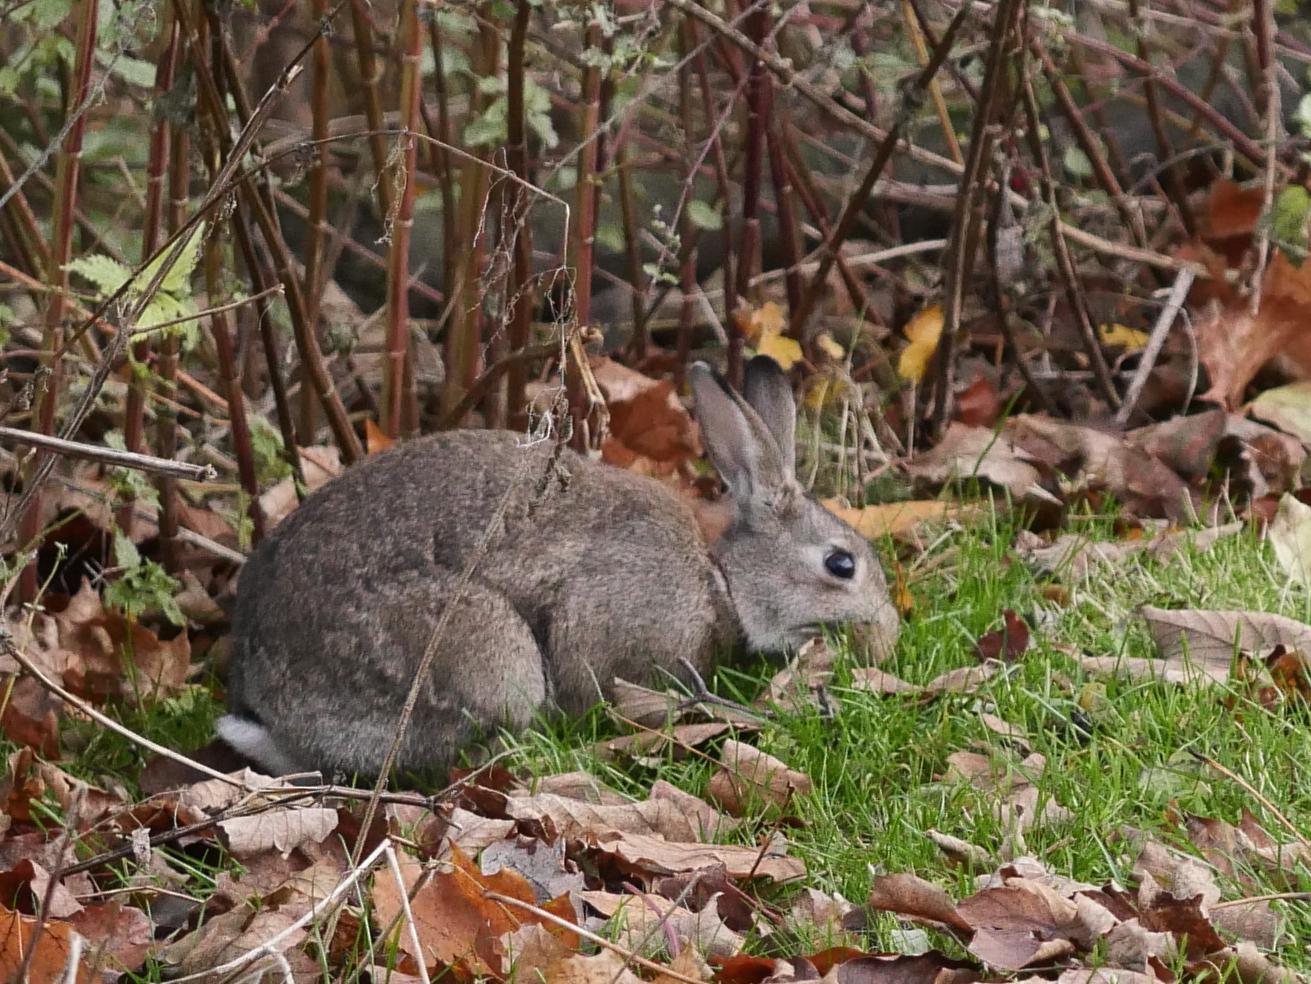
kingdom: Animalia
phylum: Chordata
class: Mammalia
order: Lagomorpha
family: Leporidae
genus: Oryctolagus
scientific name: Oryctolagus cuniculus
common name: European rabbit
